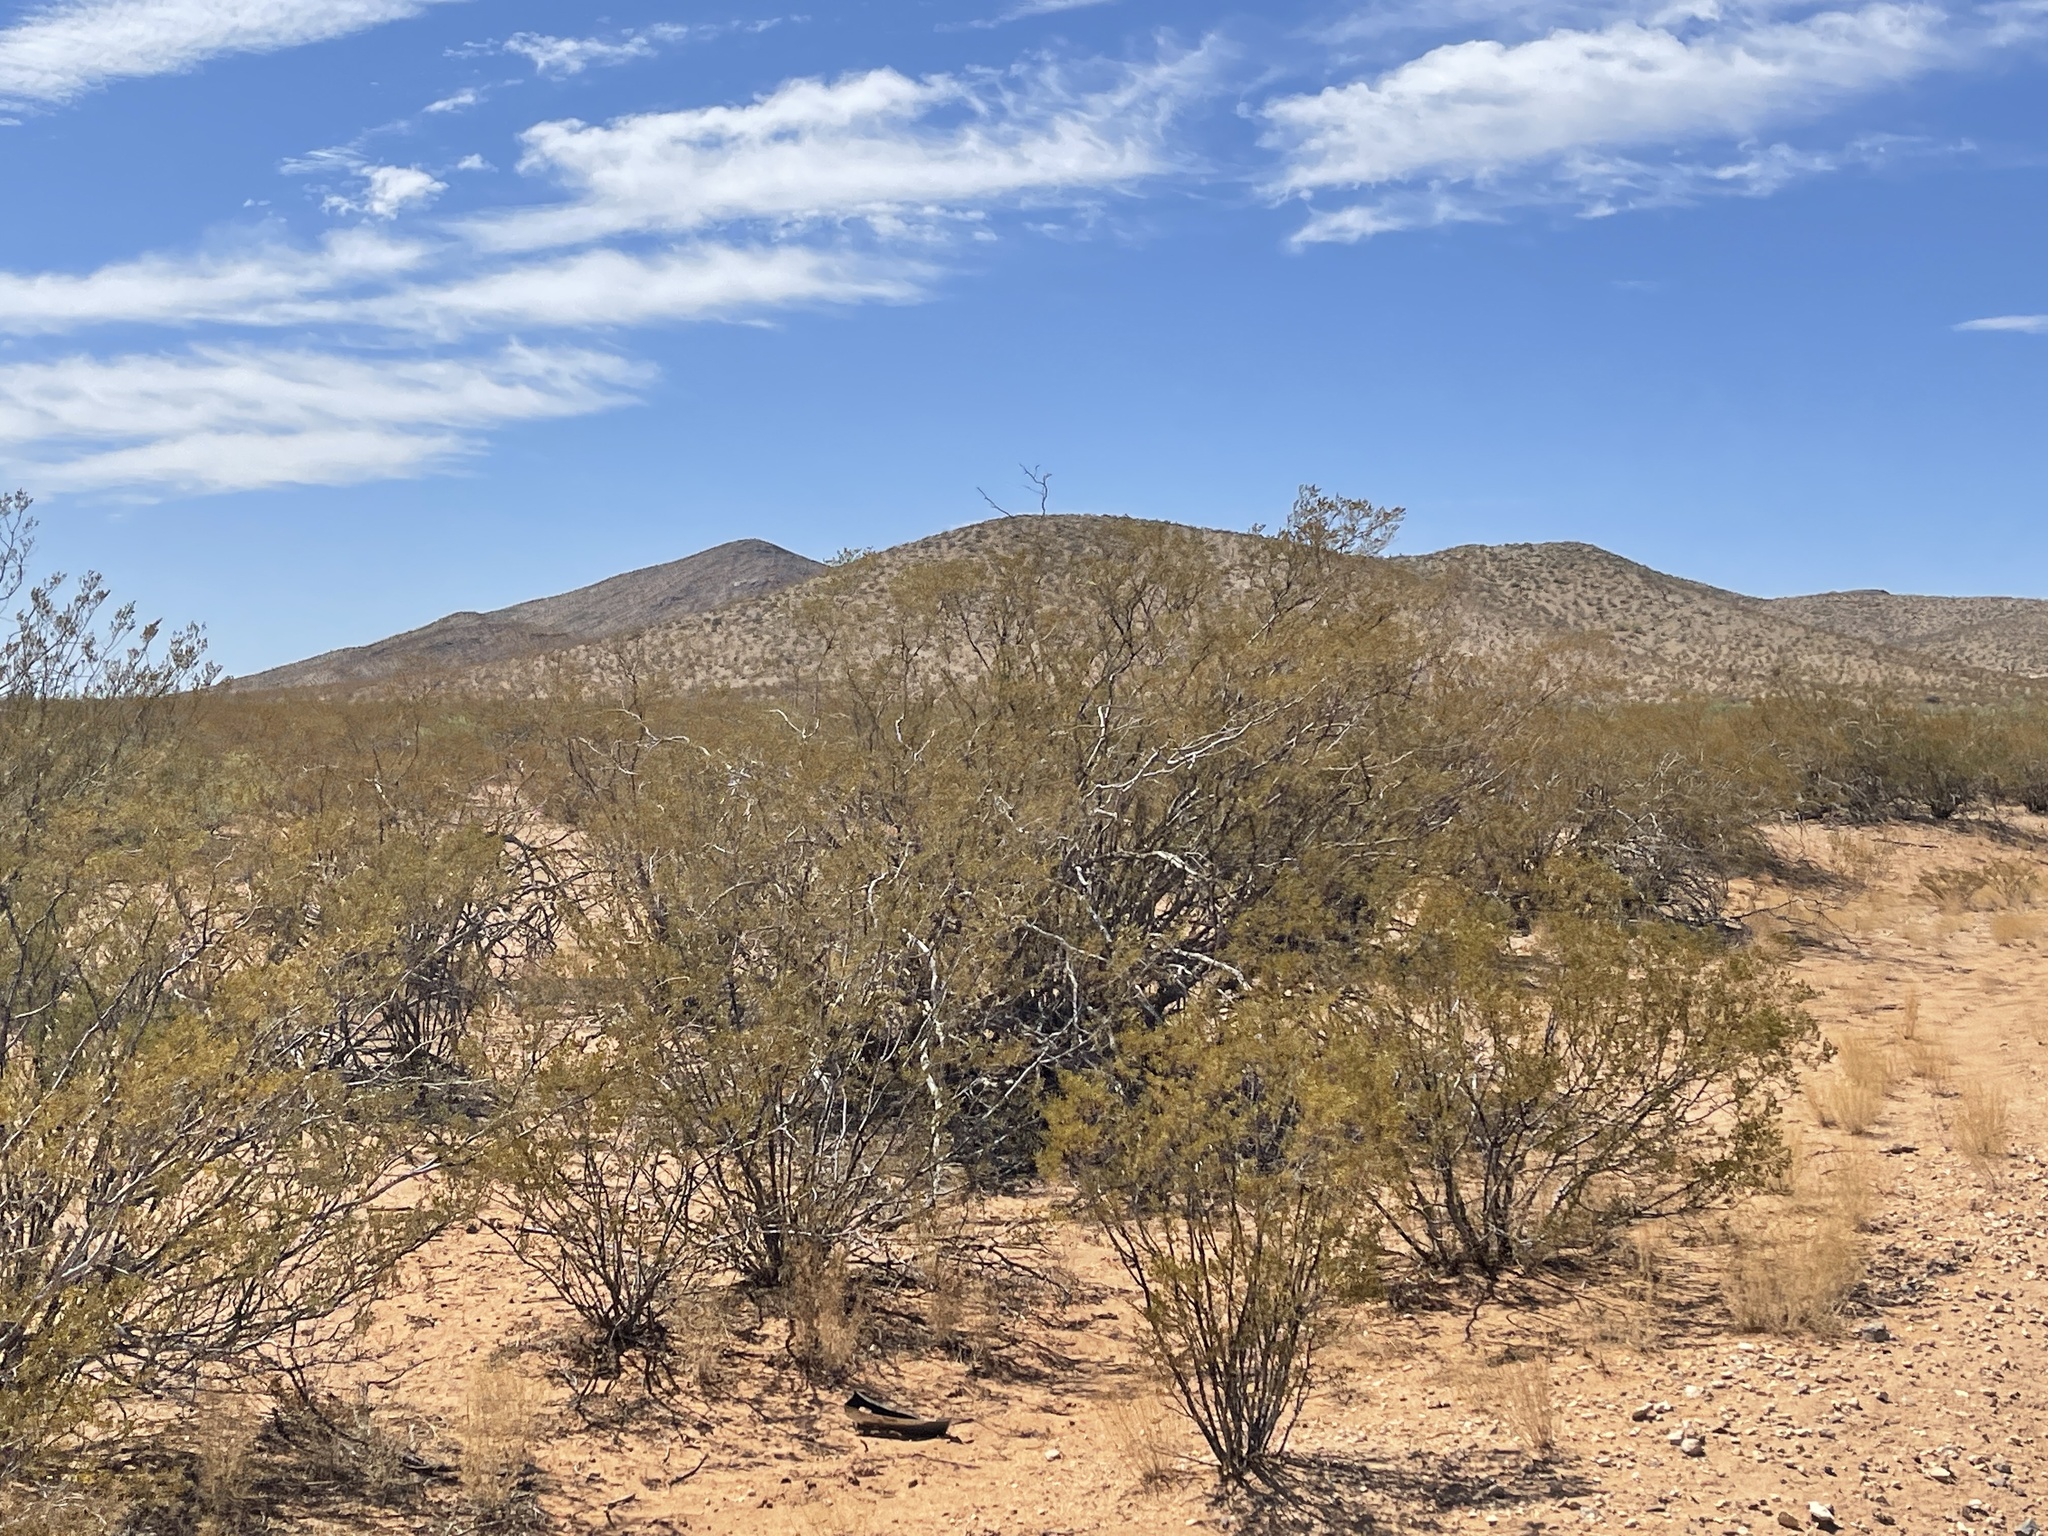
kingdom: Plantae
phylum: Tracheophyta
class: Magnoliopsida
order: Zygophyllales
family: Zygophyllaceae
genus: Larrea
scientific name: Larrea tridentata
